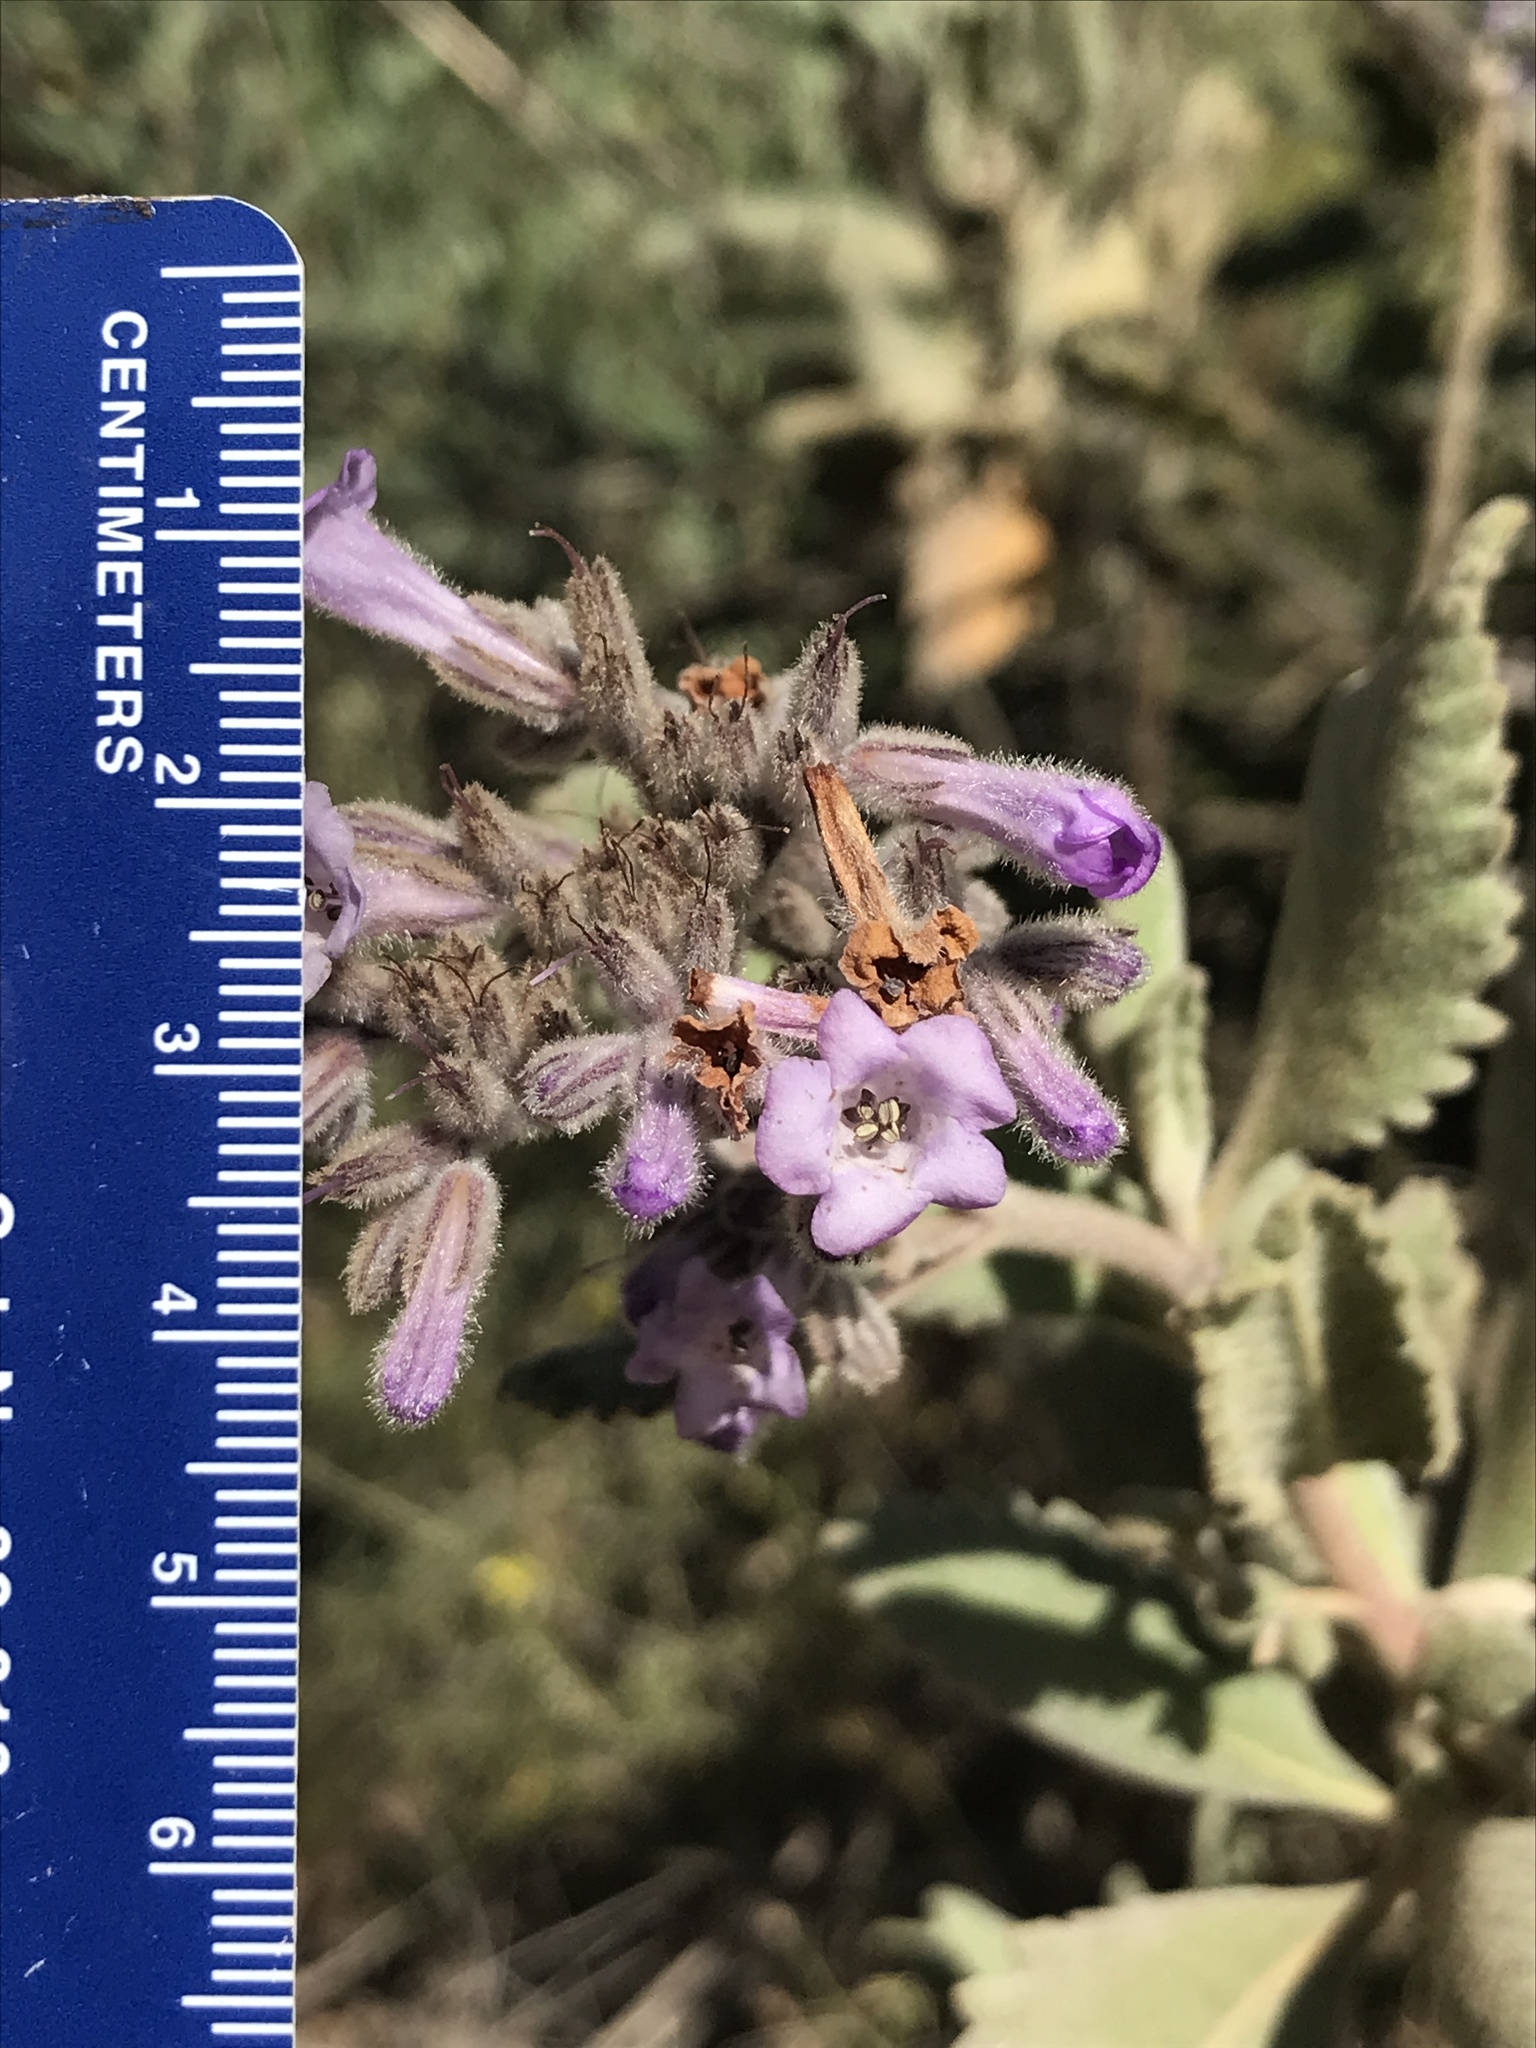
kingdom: Plantae
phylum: Tracheophyta
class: Magnoliopsida
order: Boraginales
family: Namaceae
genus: Eriodictyon
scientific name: Eriodictyon crassifolium
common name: Thick-leaf yerba-santa
